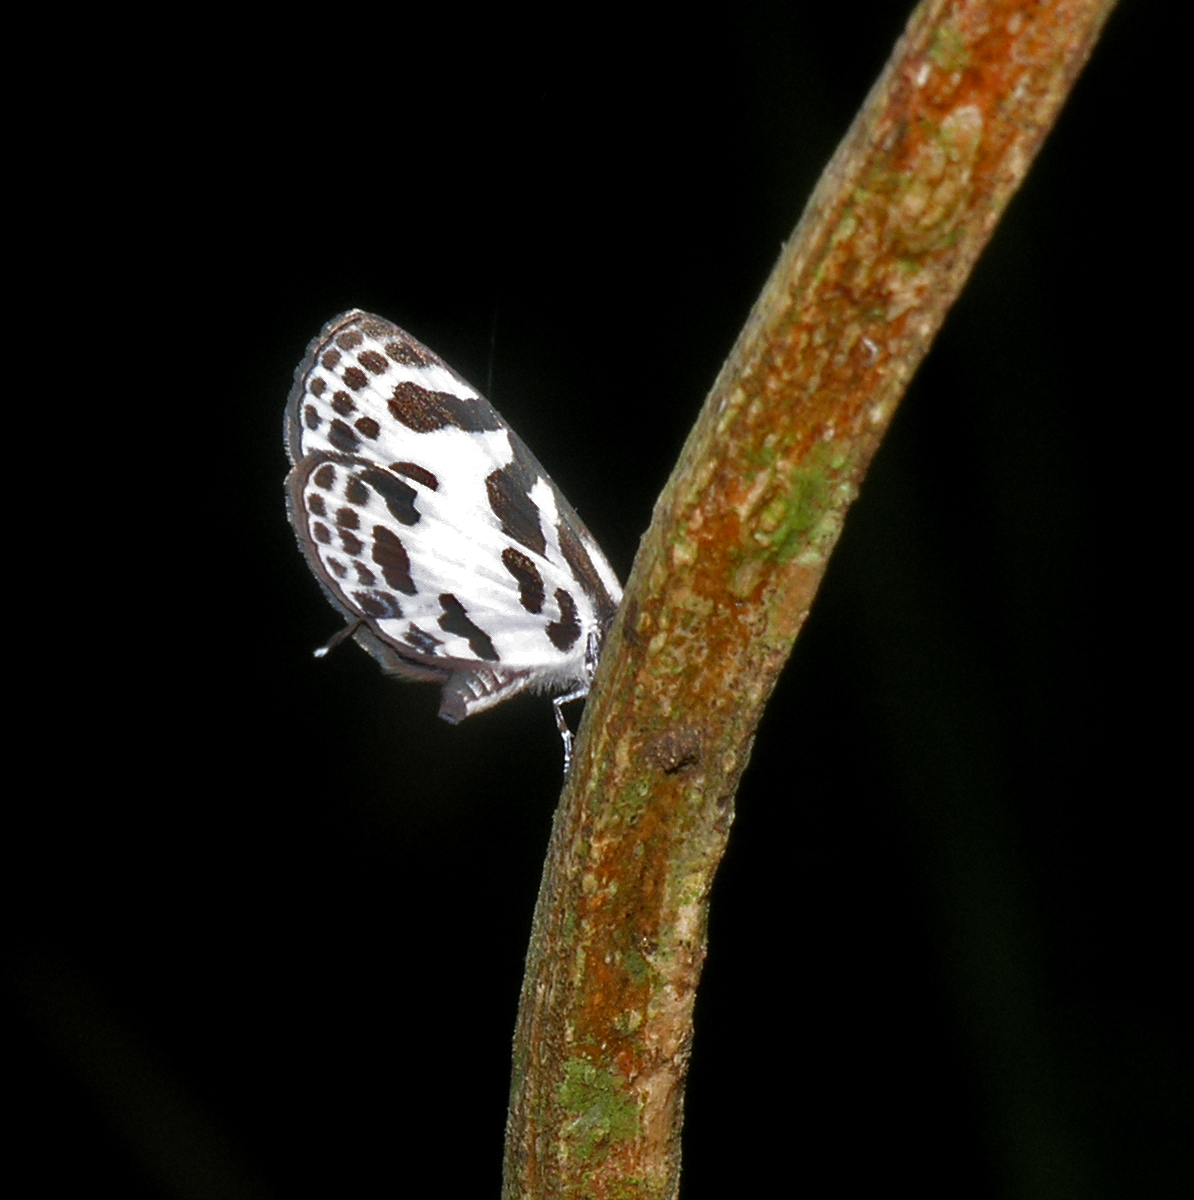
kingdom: Animalia
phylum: Arthropoda
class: Insecta
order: Lepidoptera
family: Lycaenidae
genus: Discolampa
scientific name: Discolampa ethion
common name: Banded blue pierrot
